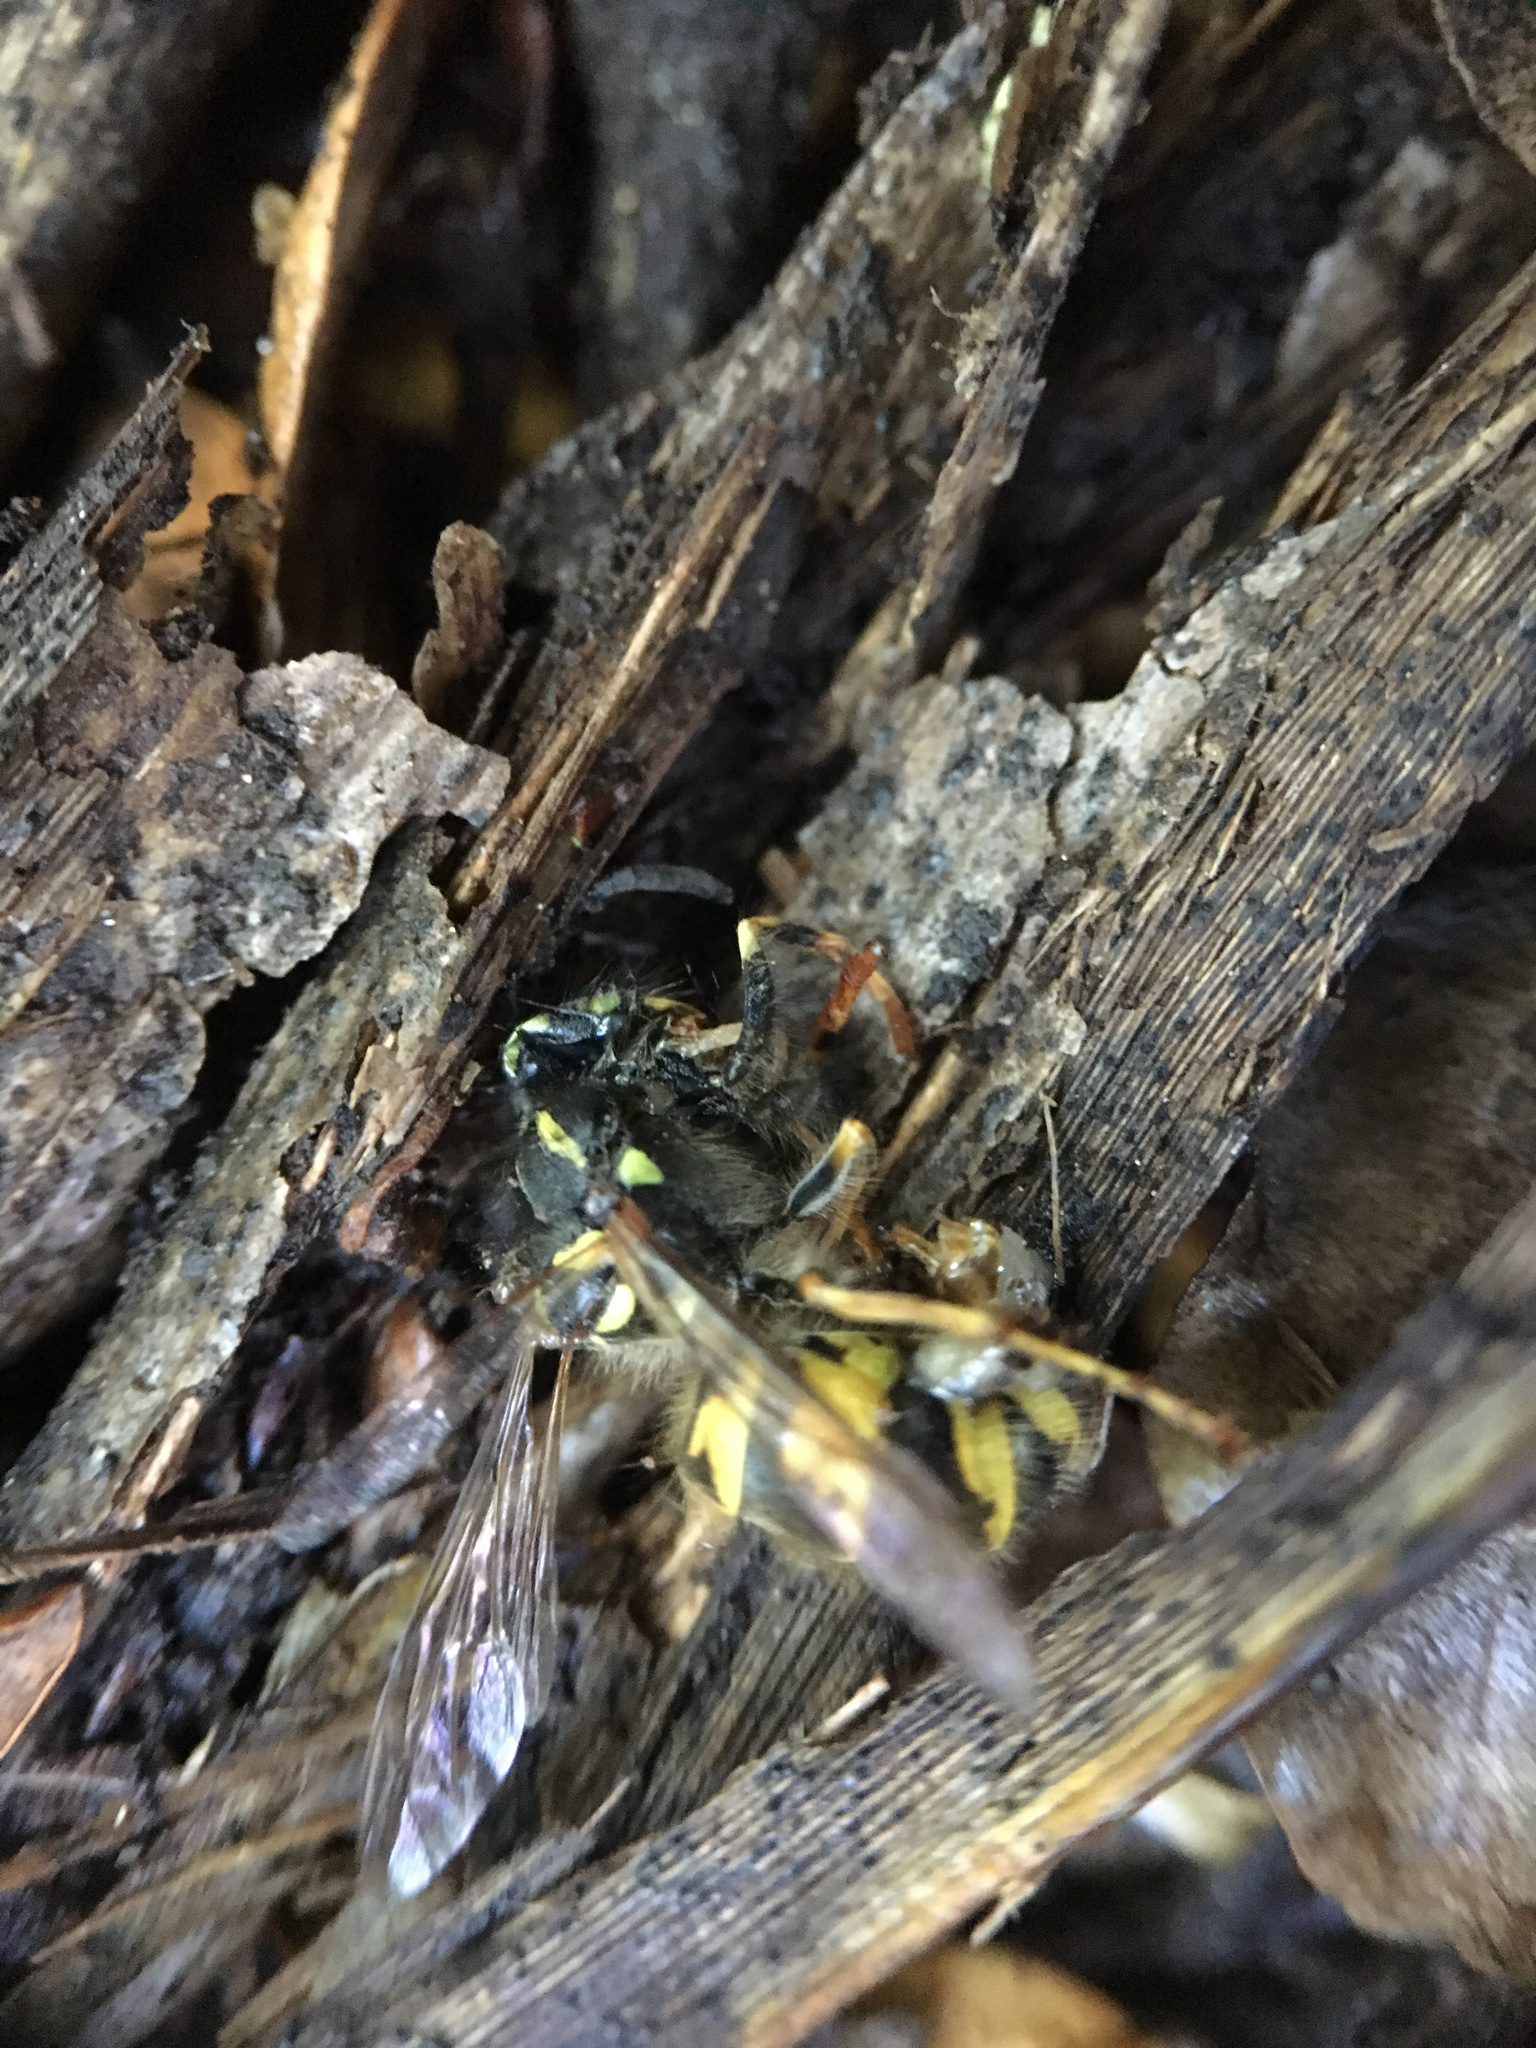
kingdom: Animalia
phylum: Arthropoda
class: Insecta
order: Hymenoptera
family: Vespidae
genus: Vespula
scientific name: Vespula vulgaris
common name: Common wasp
